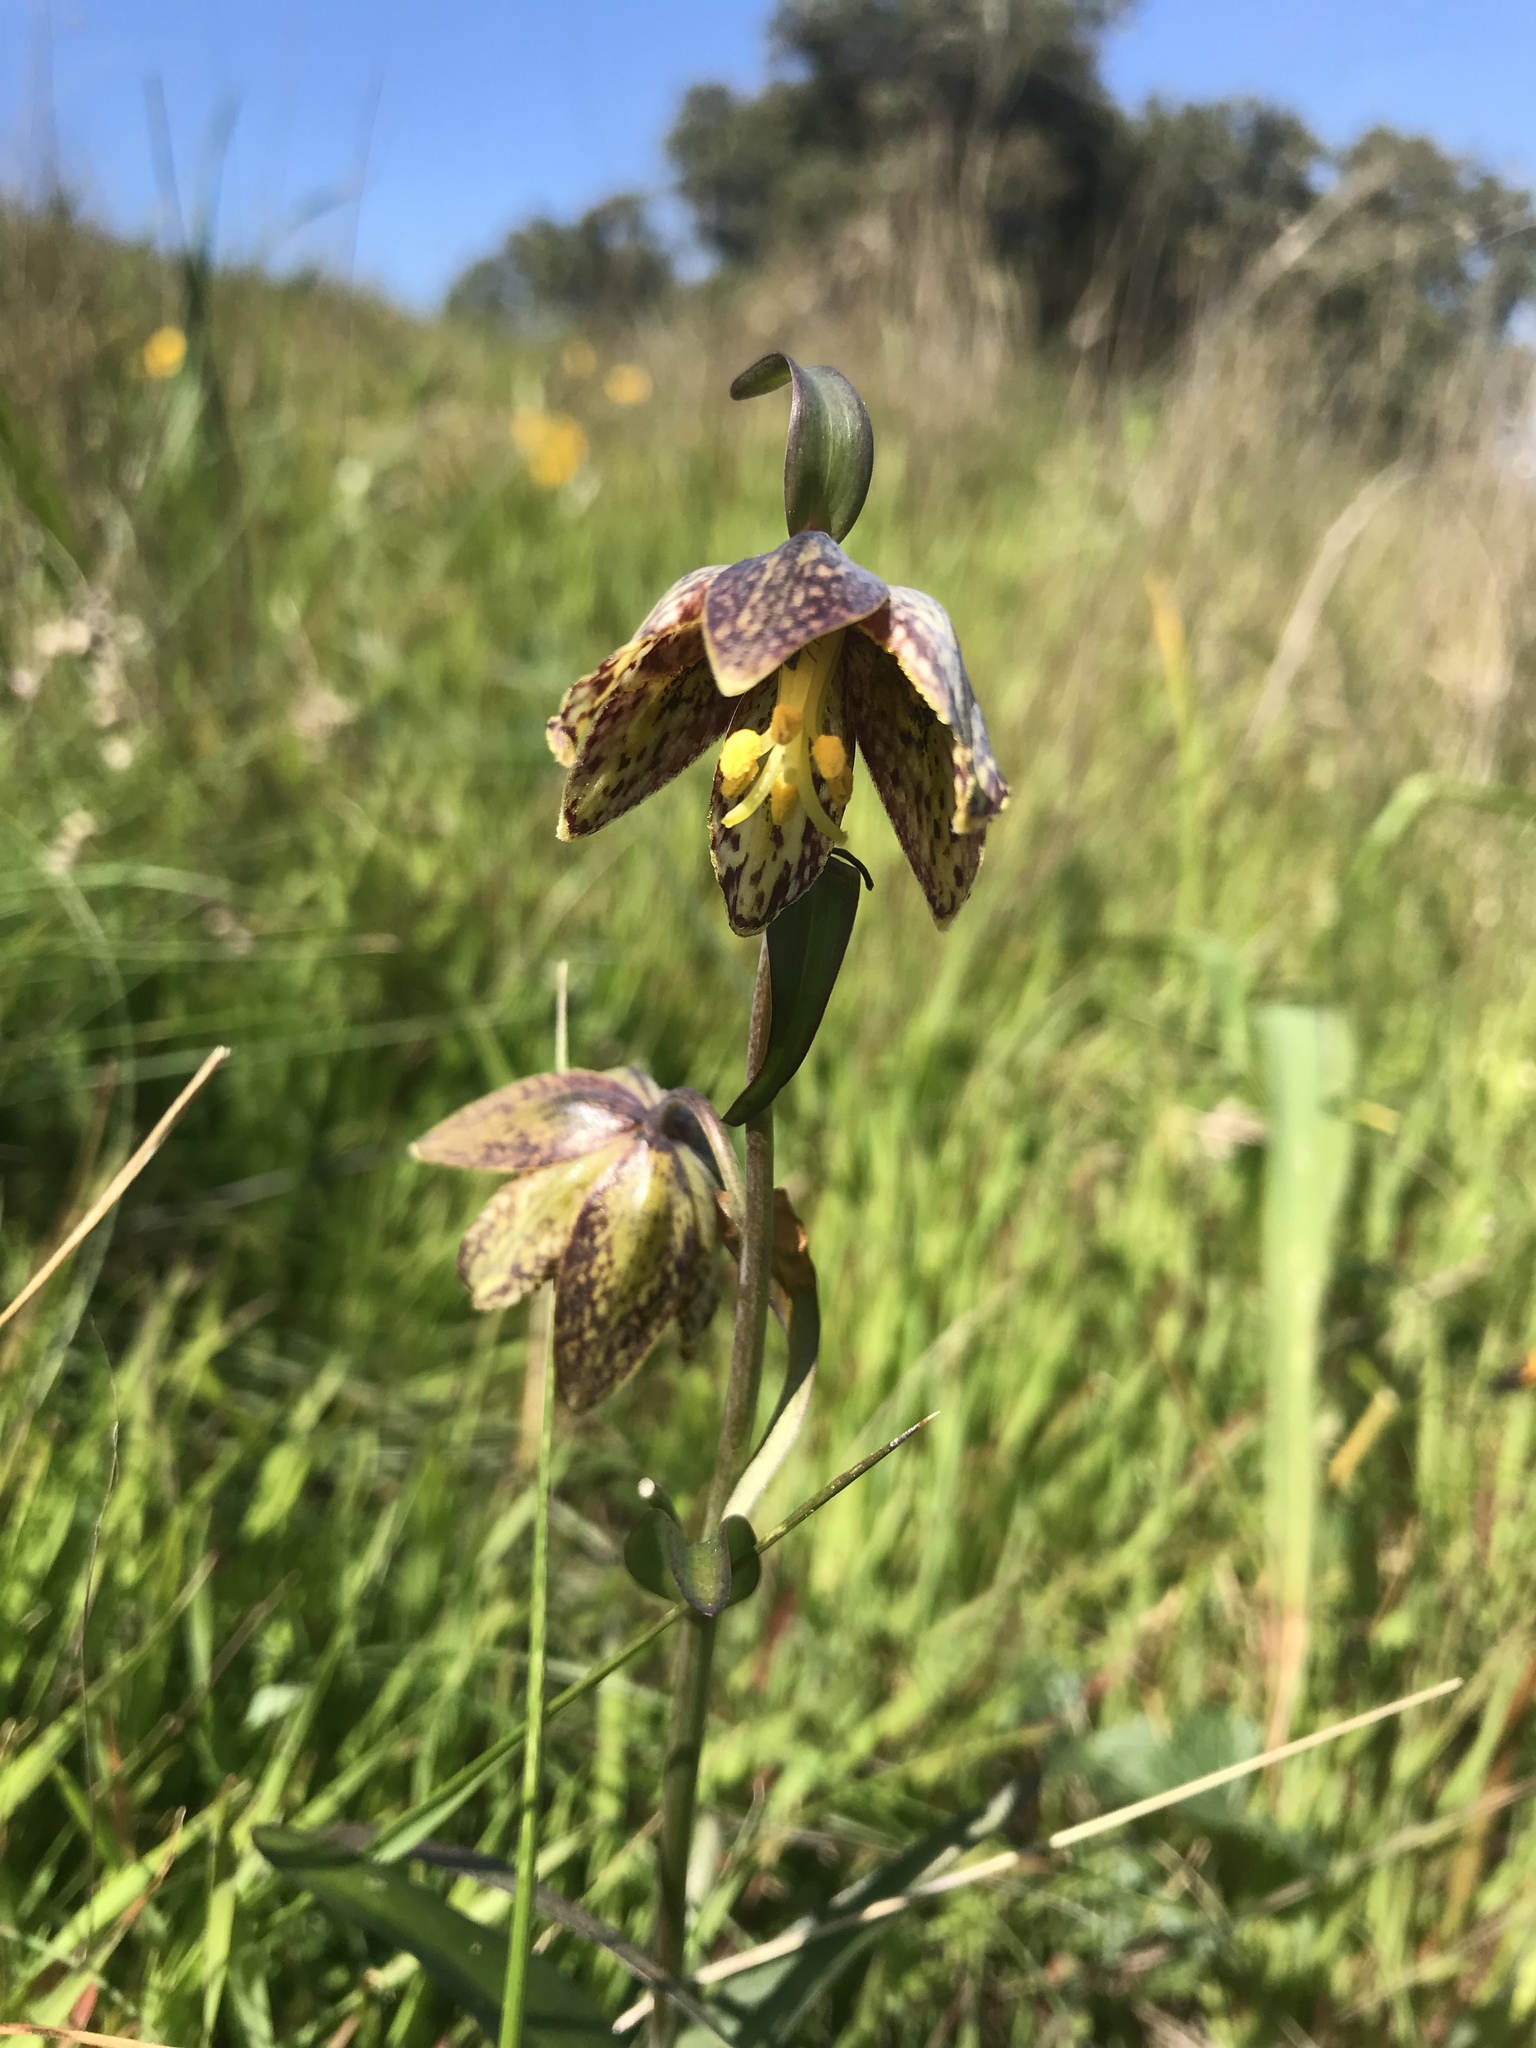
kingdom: Plantae
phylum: Tracheophyta
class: Liliopsida
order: Liliales
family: Liliaceae
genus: Fritillaria
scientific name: Fritillaria affinis
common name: Ojai fritillary
